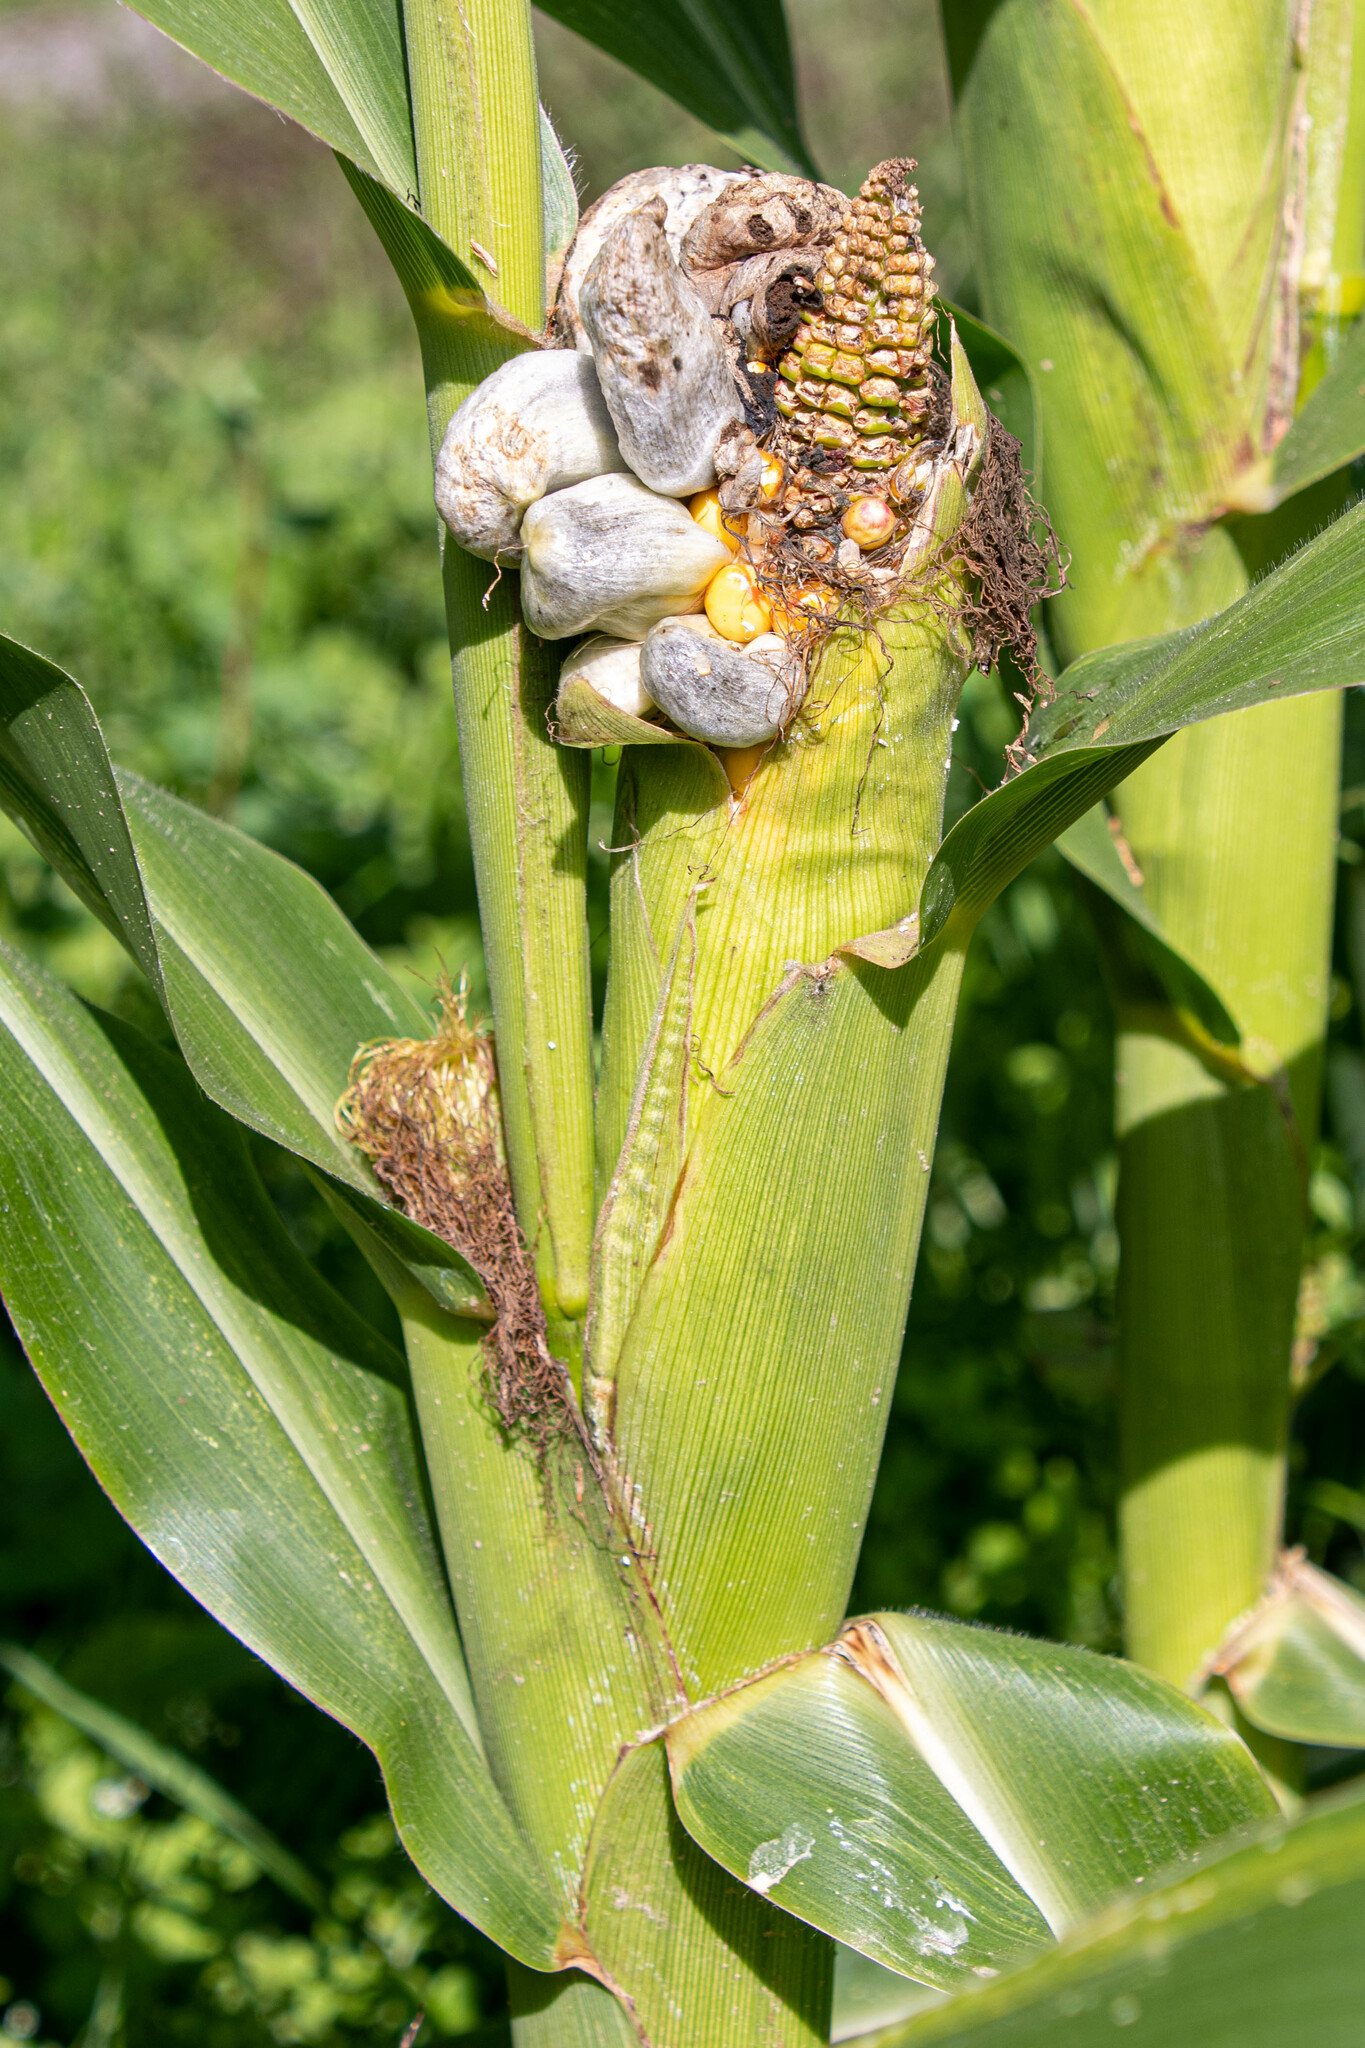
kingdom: Fungi
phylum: Basidiomycota
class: Ustilaginomycetes
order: Ustilaginales
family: Ustilaginaceae
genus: Mycosarcoma
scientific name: Mycosarcoma maydis
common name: Corn smut
